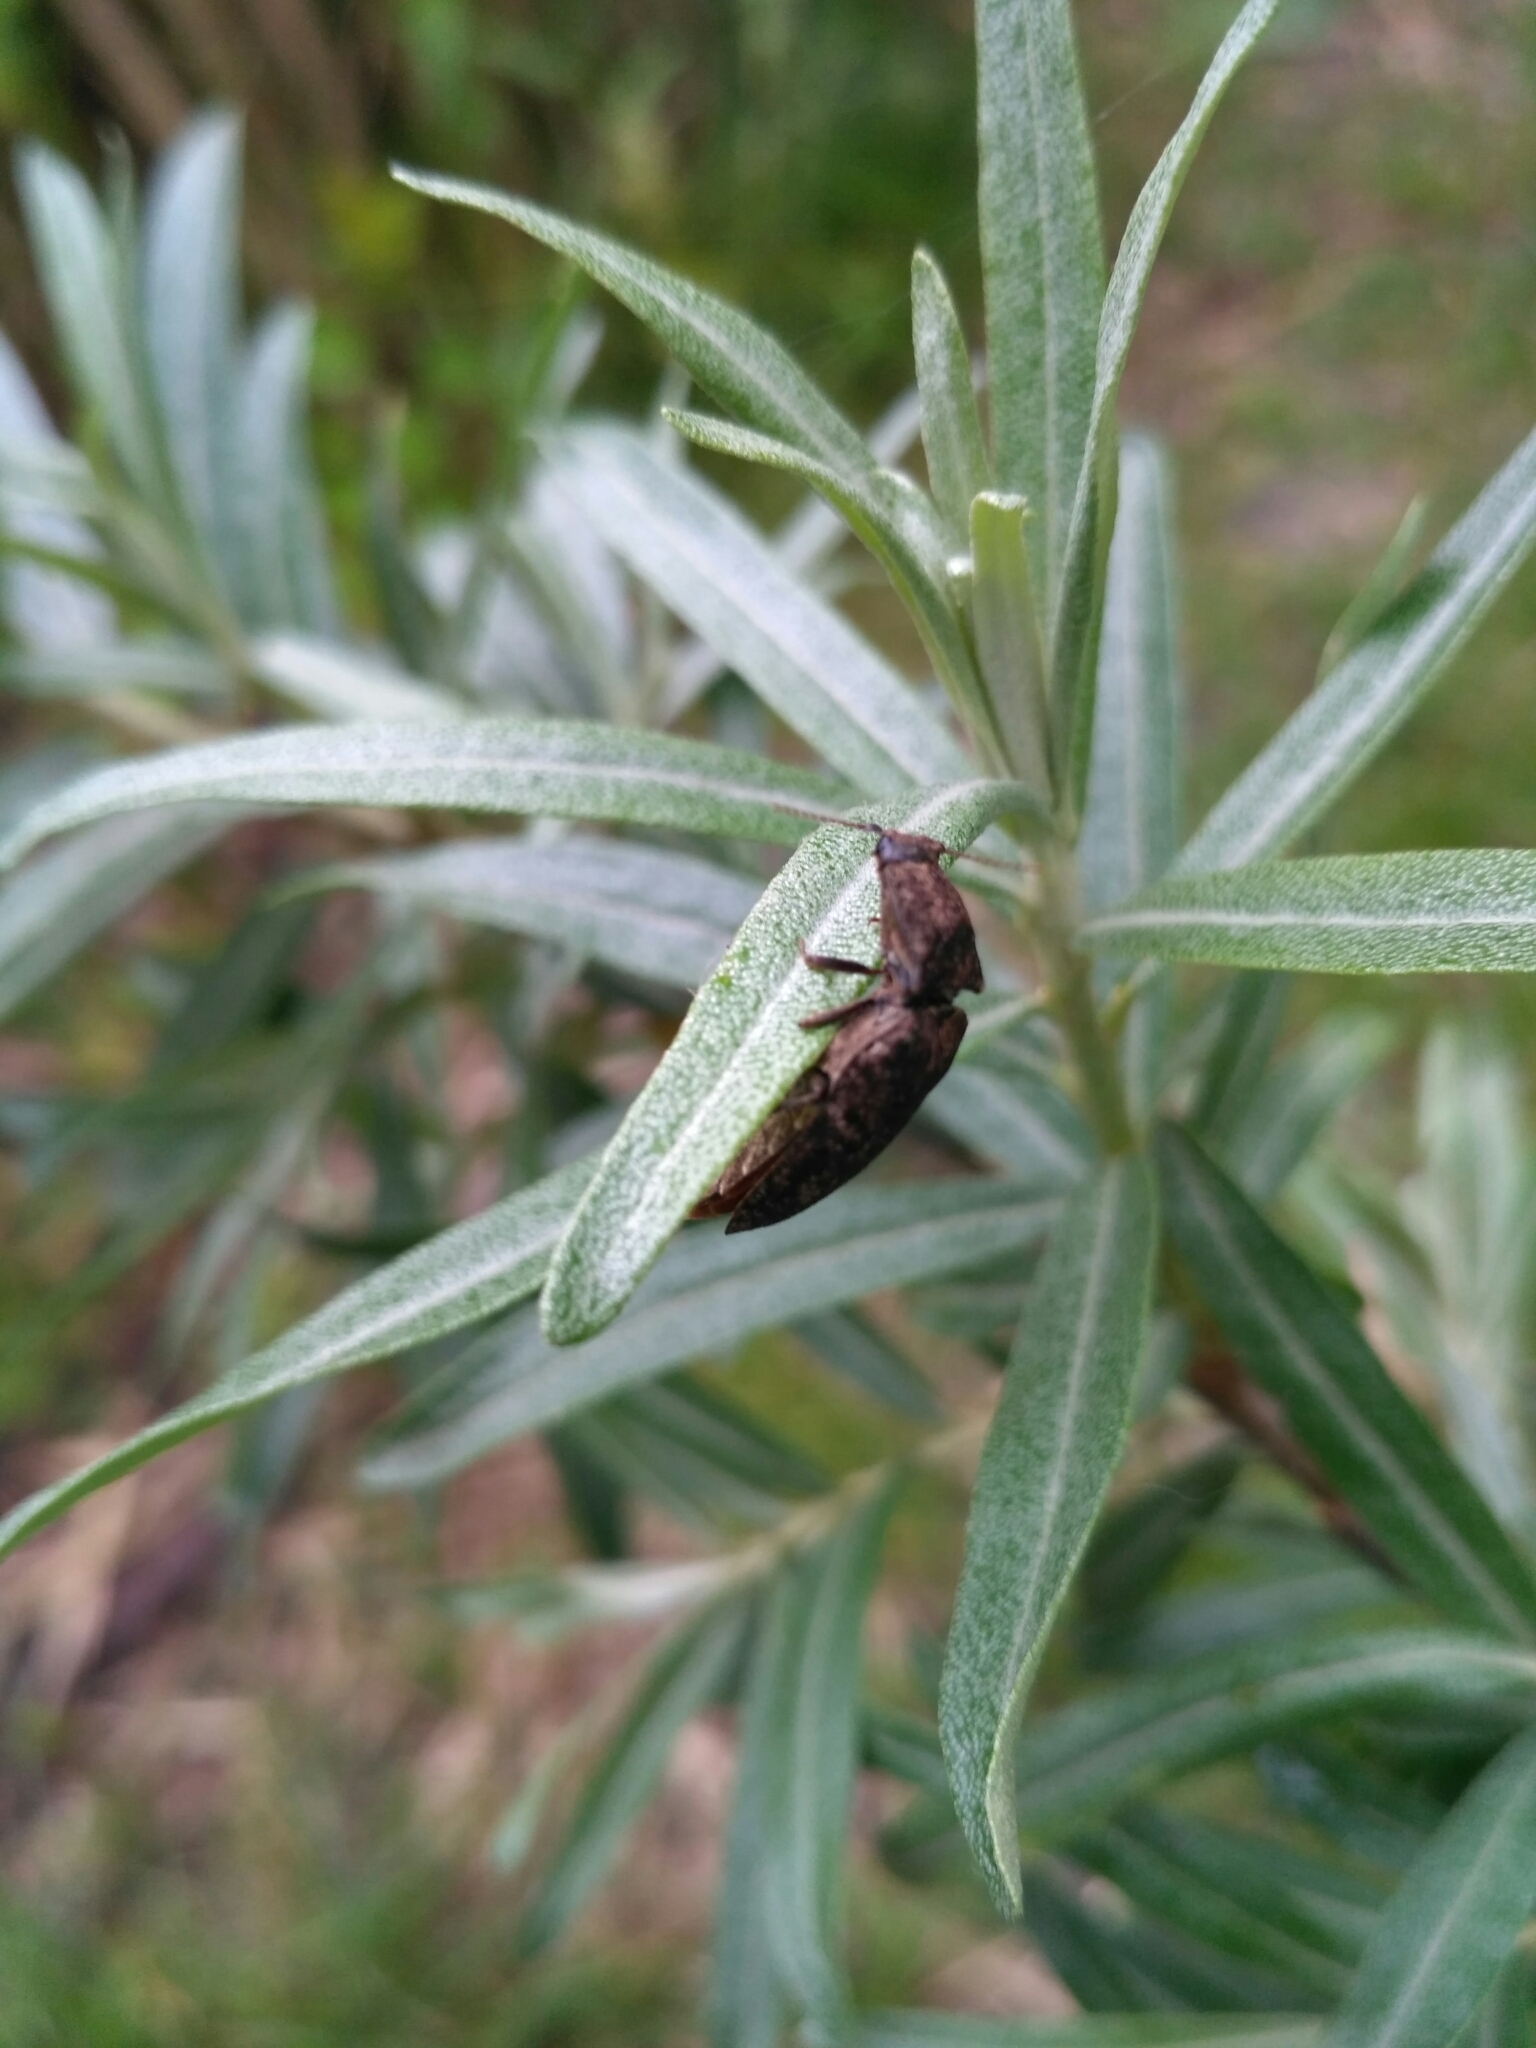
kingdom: Animalia
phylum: Arthropoda
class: Insecta
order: Coleoptera
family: Elateridae
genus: Agrypnus
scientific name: Agrypnus murinus
